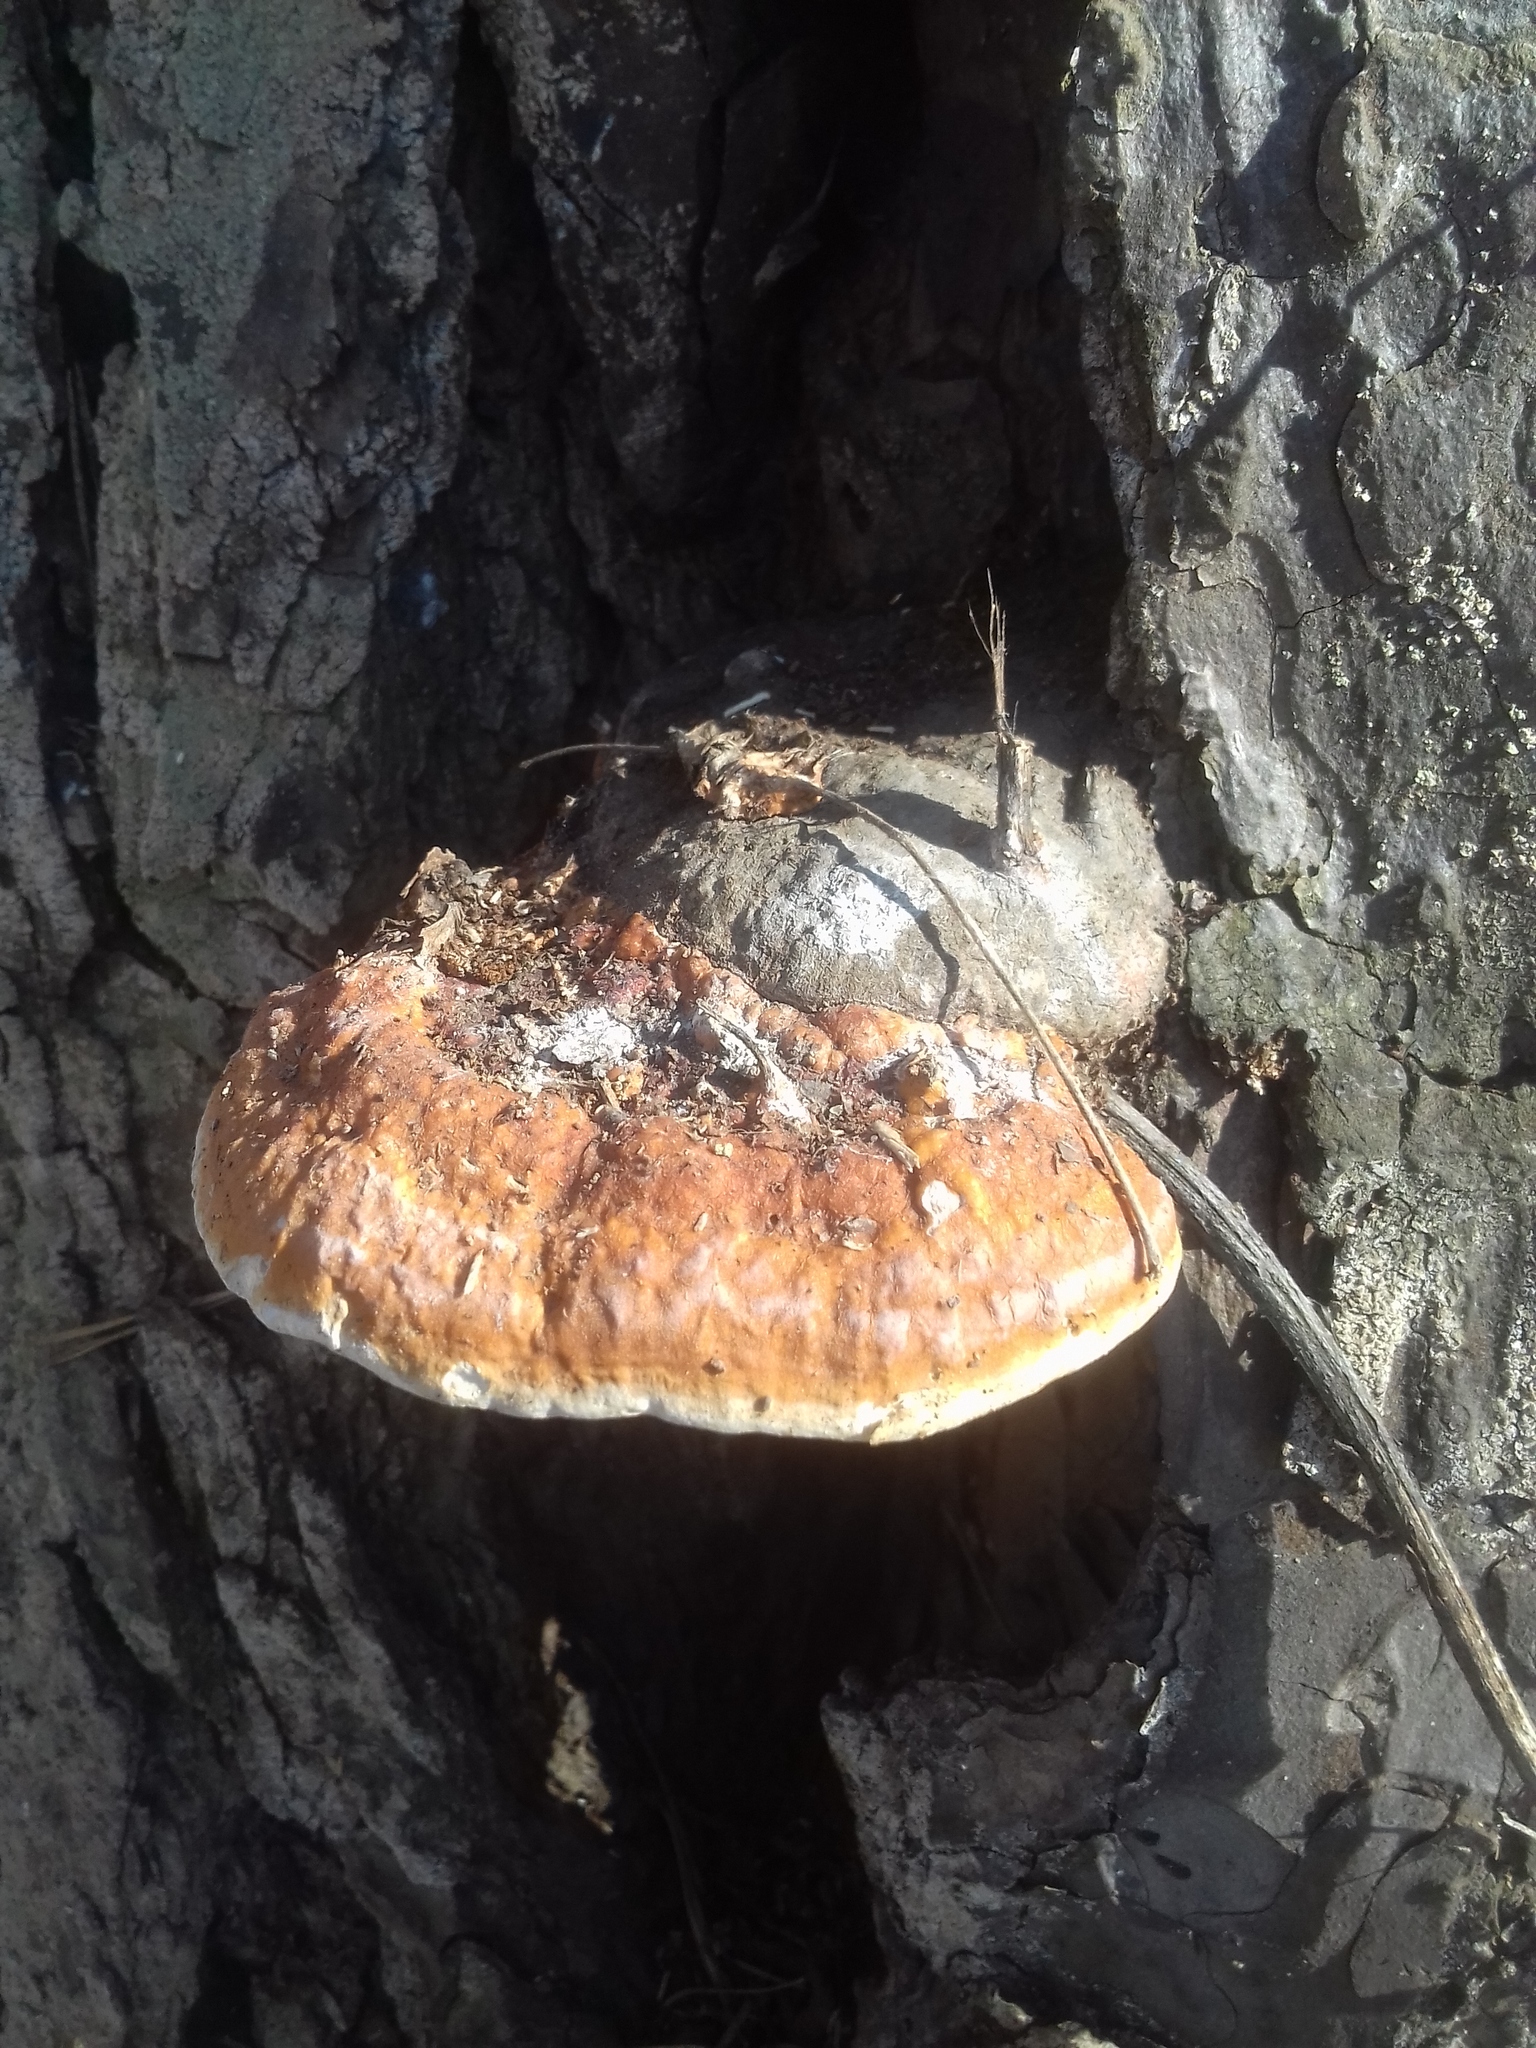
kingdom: Fungi
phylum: Basidiomycota
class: Agaricomycetes
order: Polyporales
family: Fomitopsidaceae
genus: Fomitopsis
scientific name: Fomitopsis pinicola
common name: Red-belted bracket
